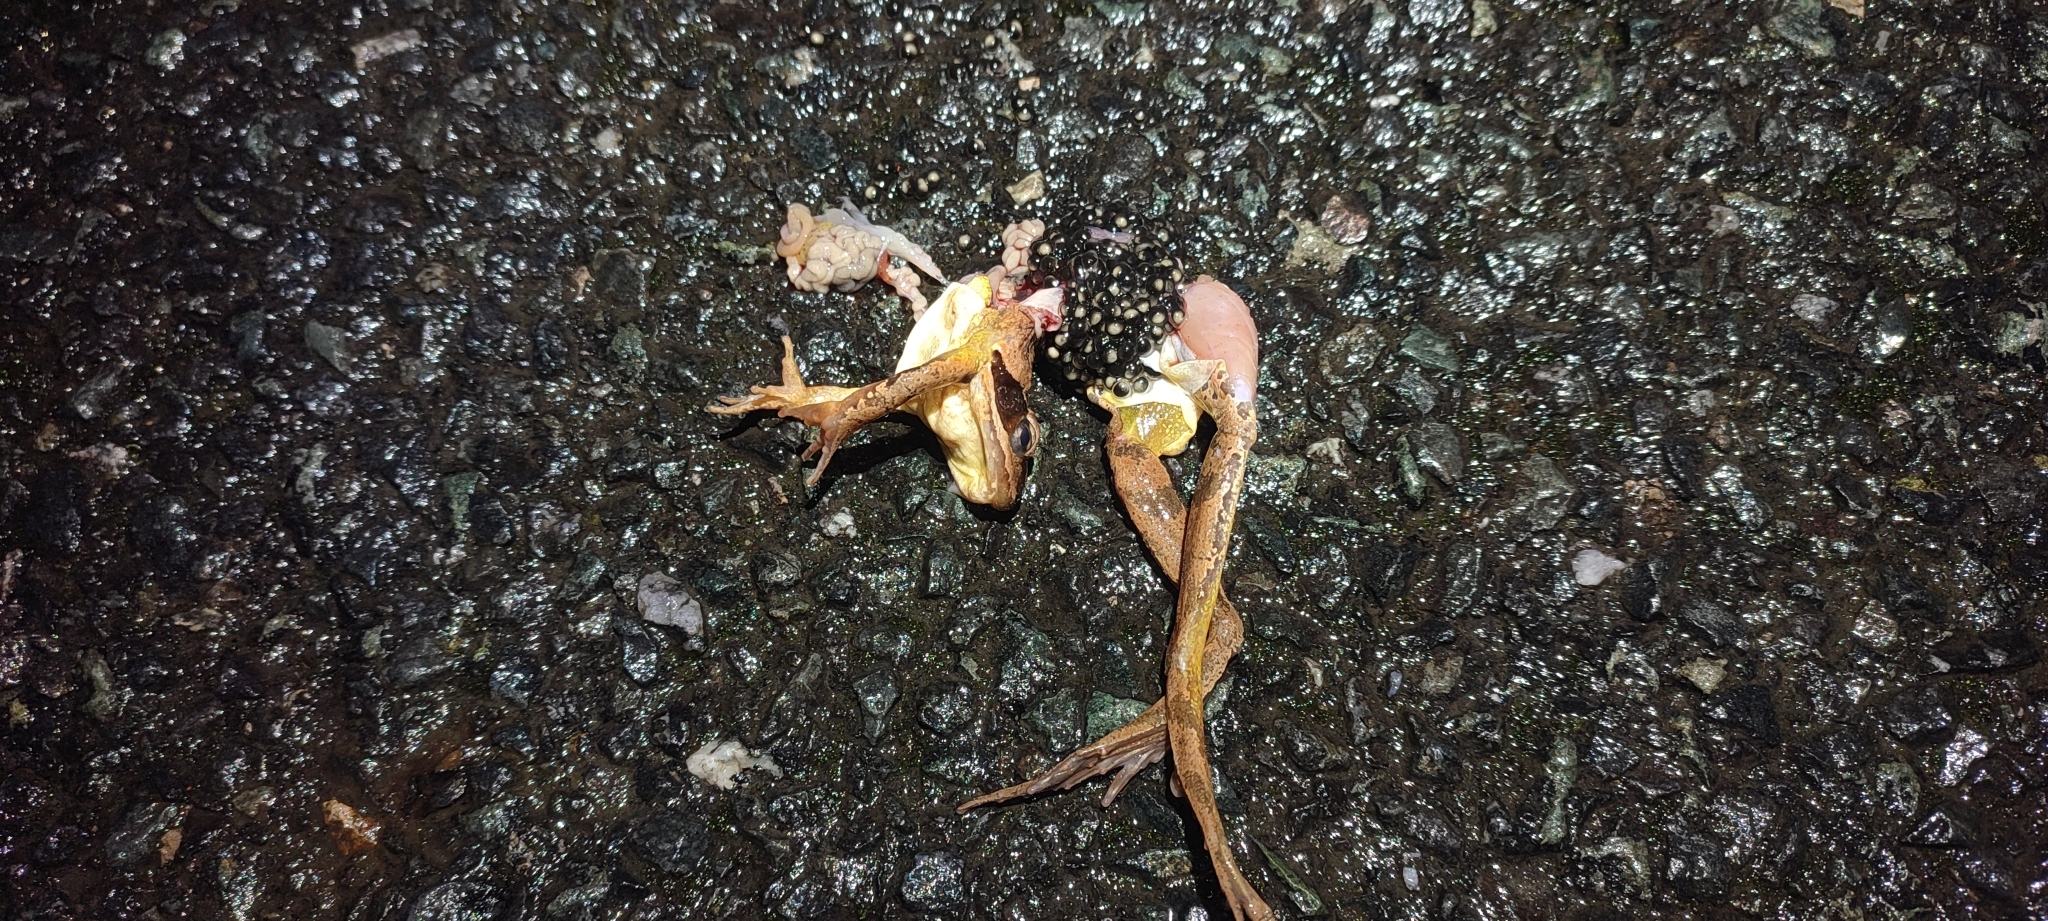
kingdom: Animalia
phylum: Chordata
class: Amphibia
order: Anura
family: Ranidae
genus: Rana
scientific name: Rana dalmatina
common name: Agile frog
